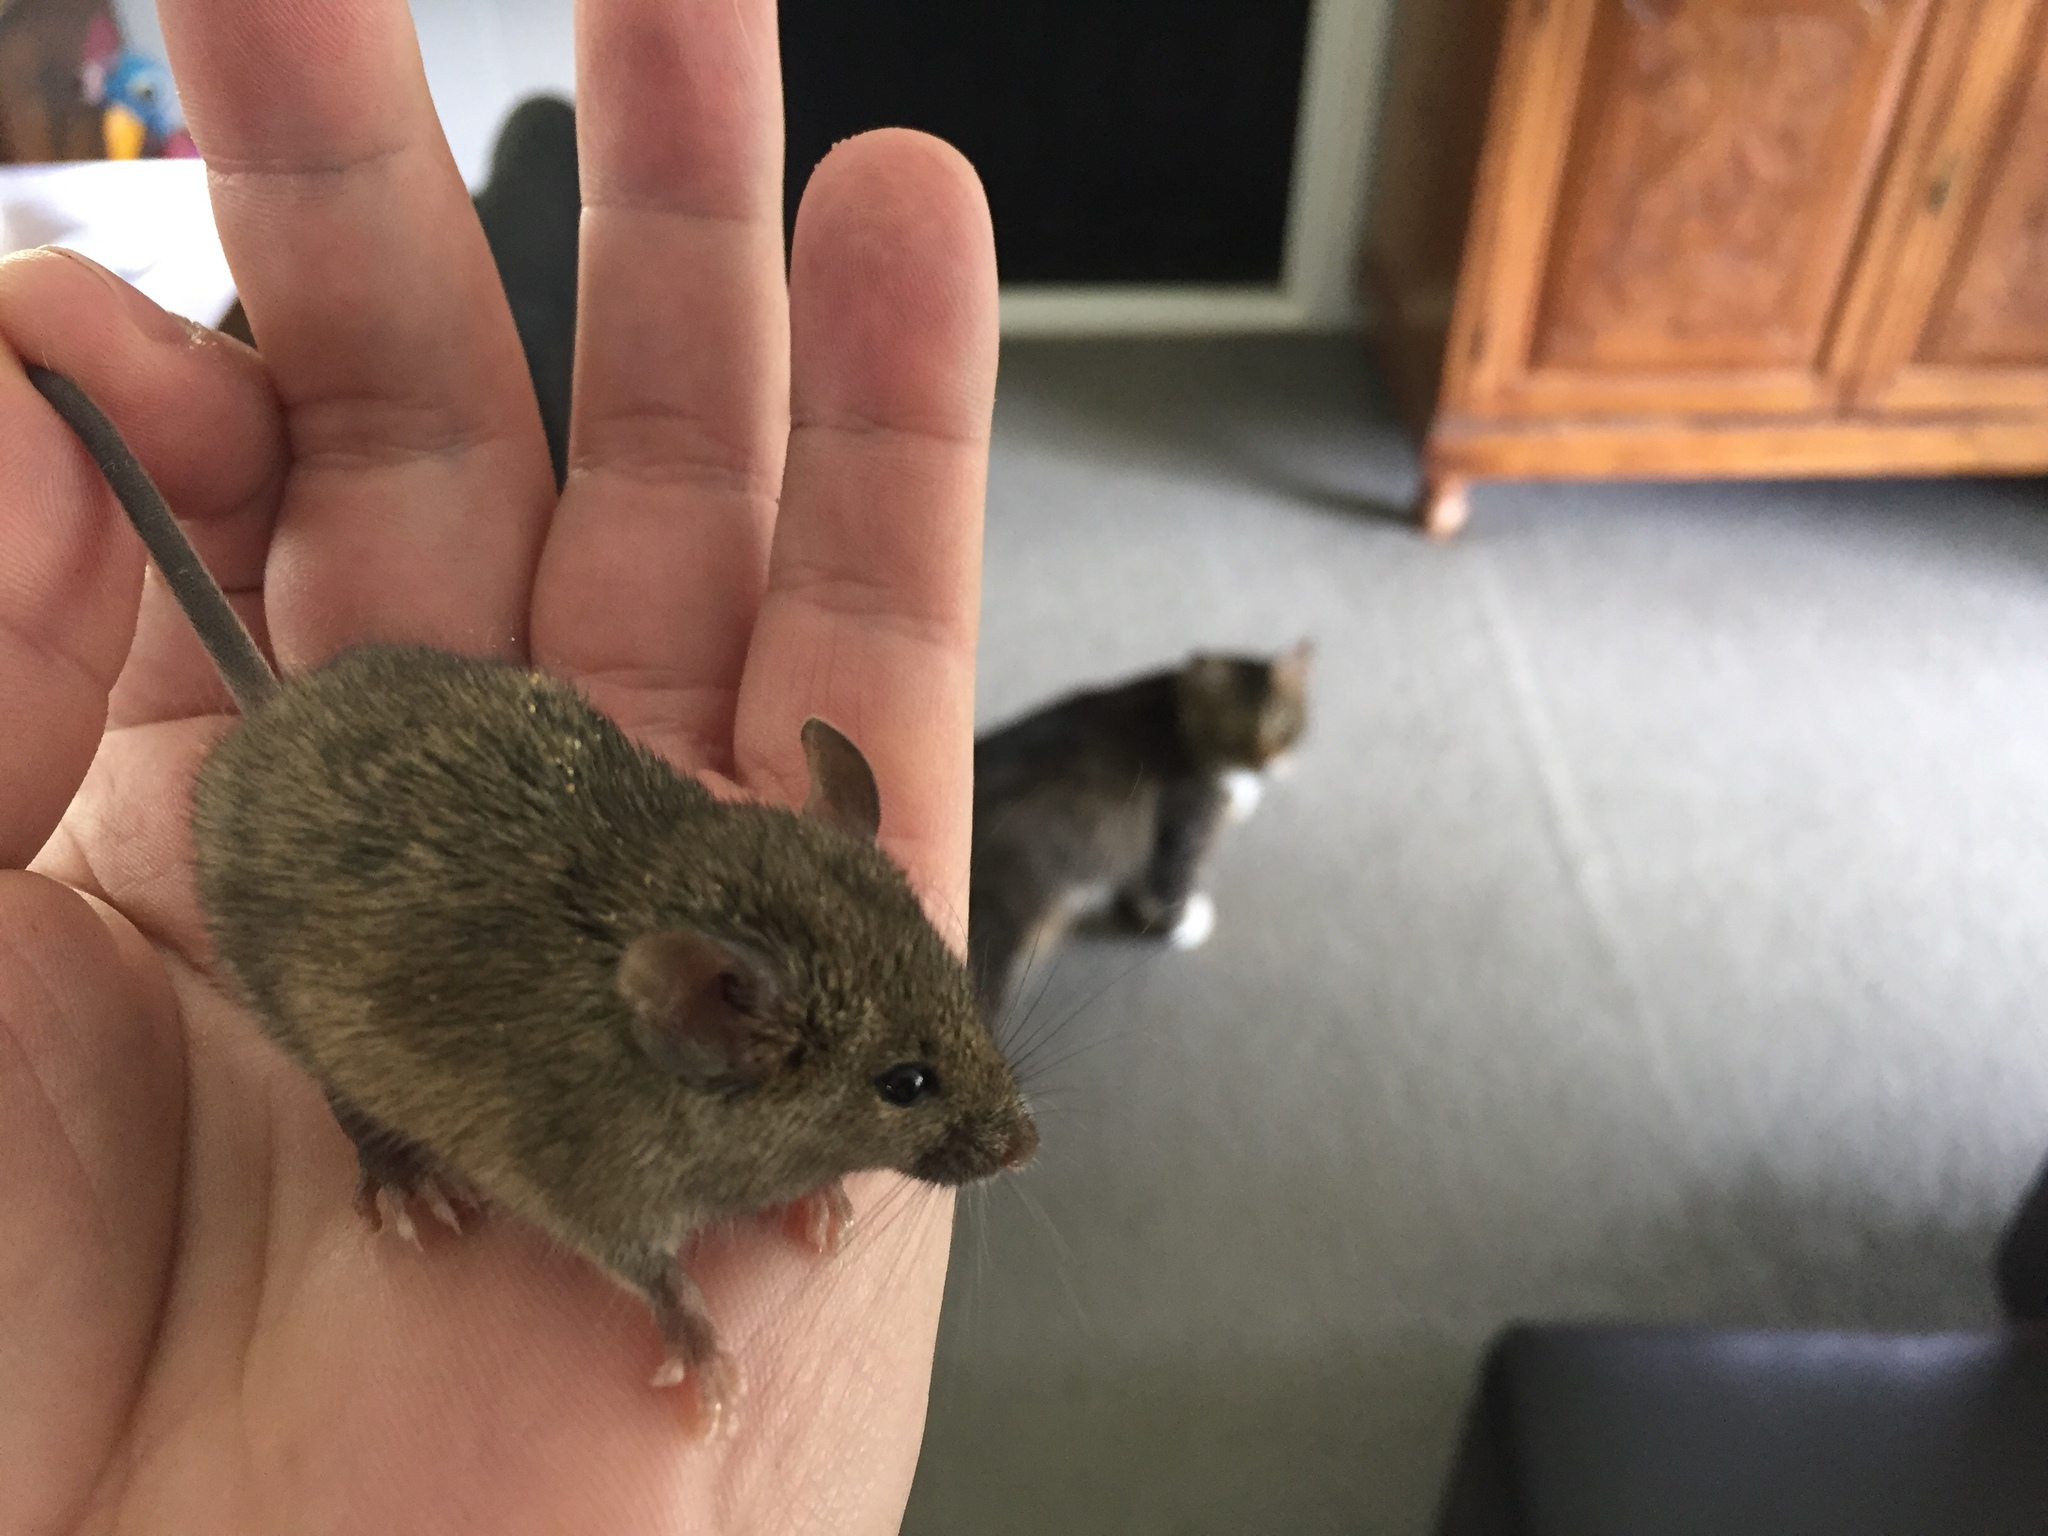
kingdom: Animalia
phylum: Chordata
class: Mammalia
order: Rodentia
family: Muridae
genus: Mus
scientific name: Mus musculus
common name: House mouse
